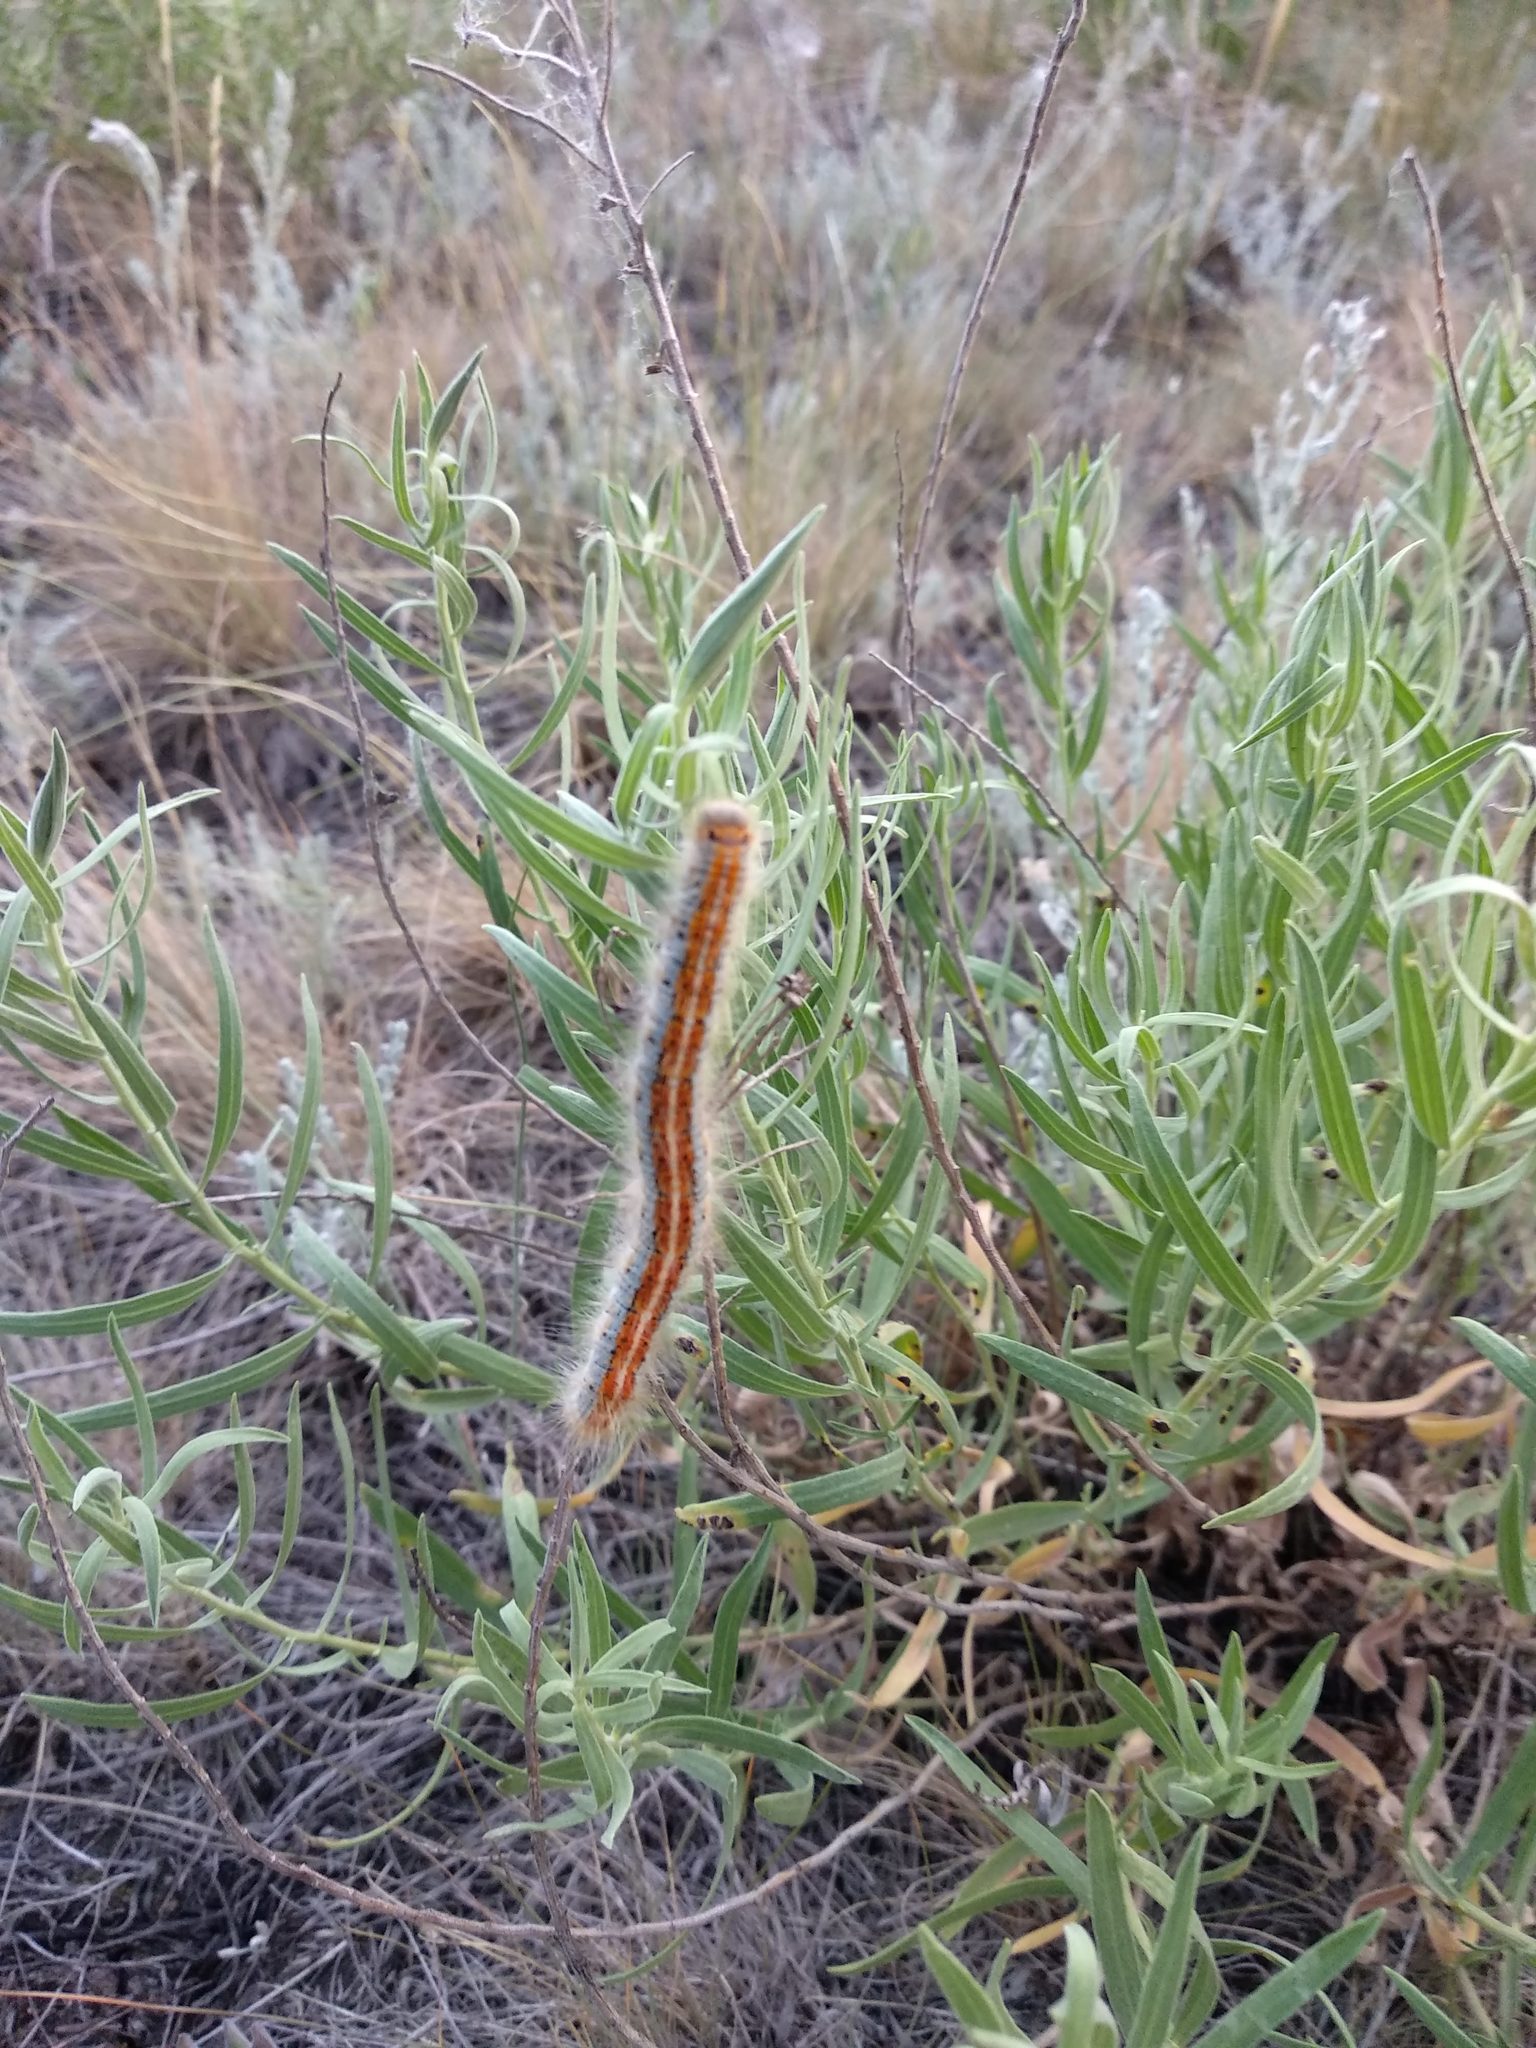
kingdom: Animalia
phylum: Arthropoda
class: Insecta
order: Lepidoptera
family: Lasiocampidae
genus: Malacosoma
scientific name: Malacosoma castrense
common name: Ground lackey
